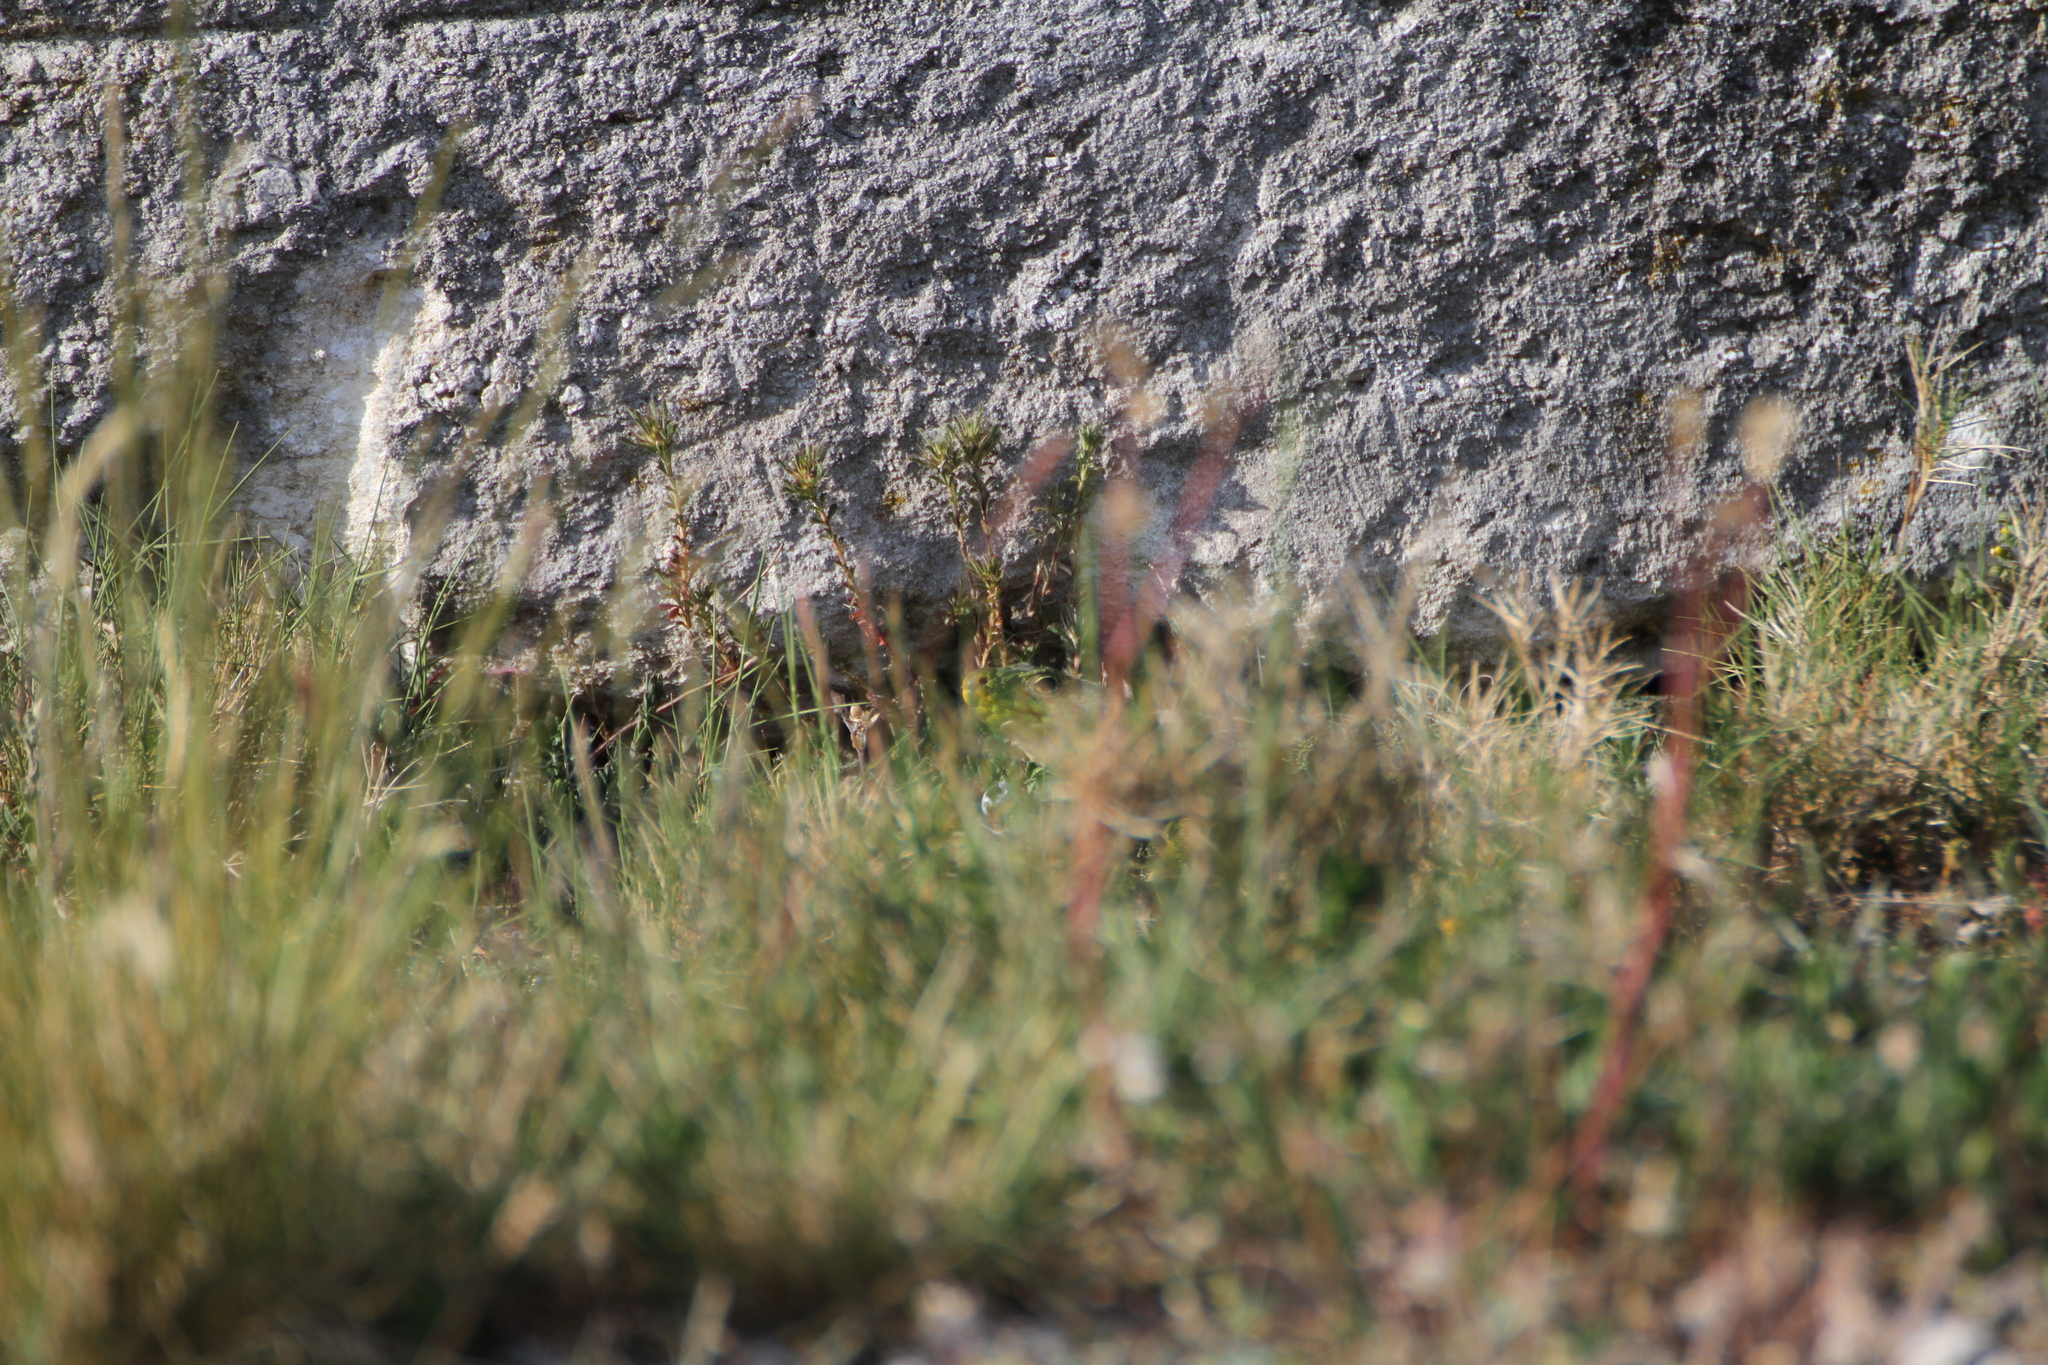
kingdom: Animalia
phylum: Chordata
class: Squamata
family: Lacertidae
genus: Timon
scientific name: Timon lepidus
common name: Ocellated lizard
